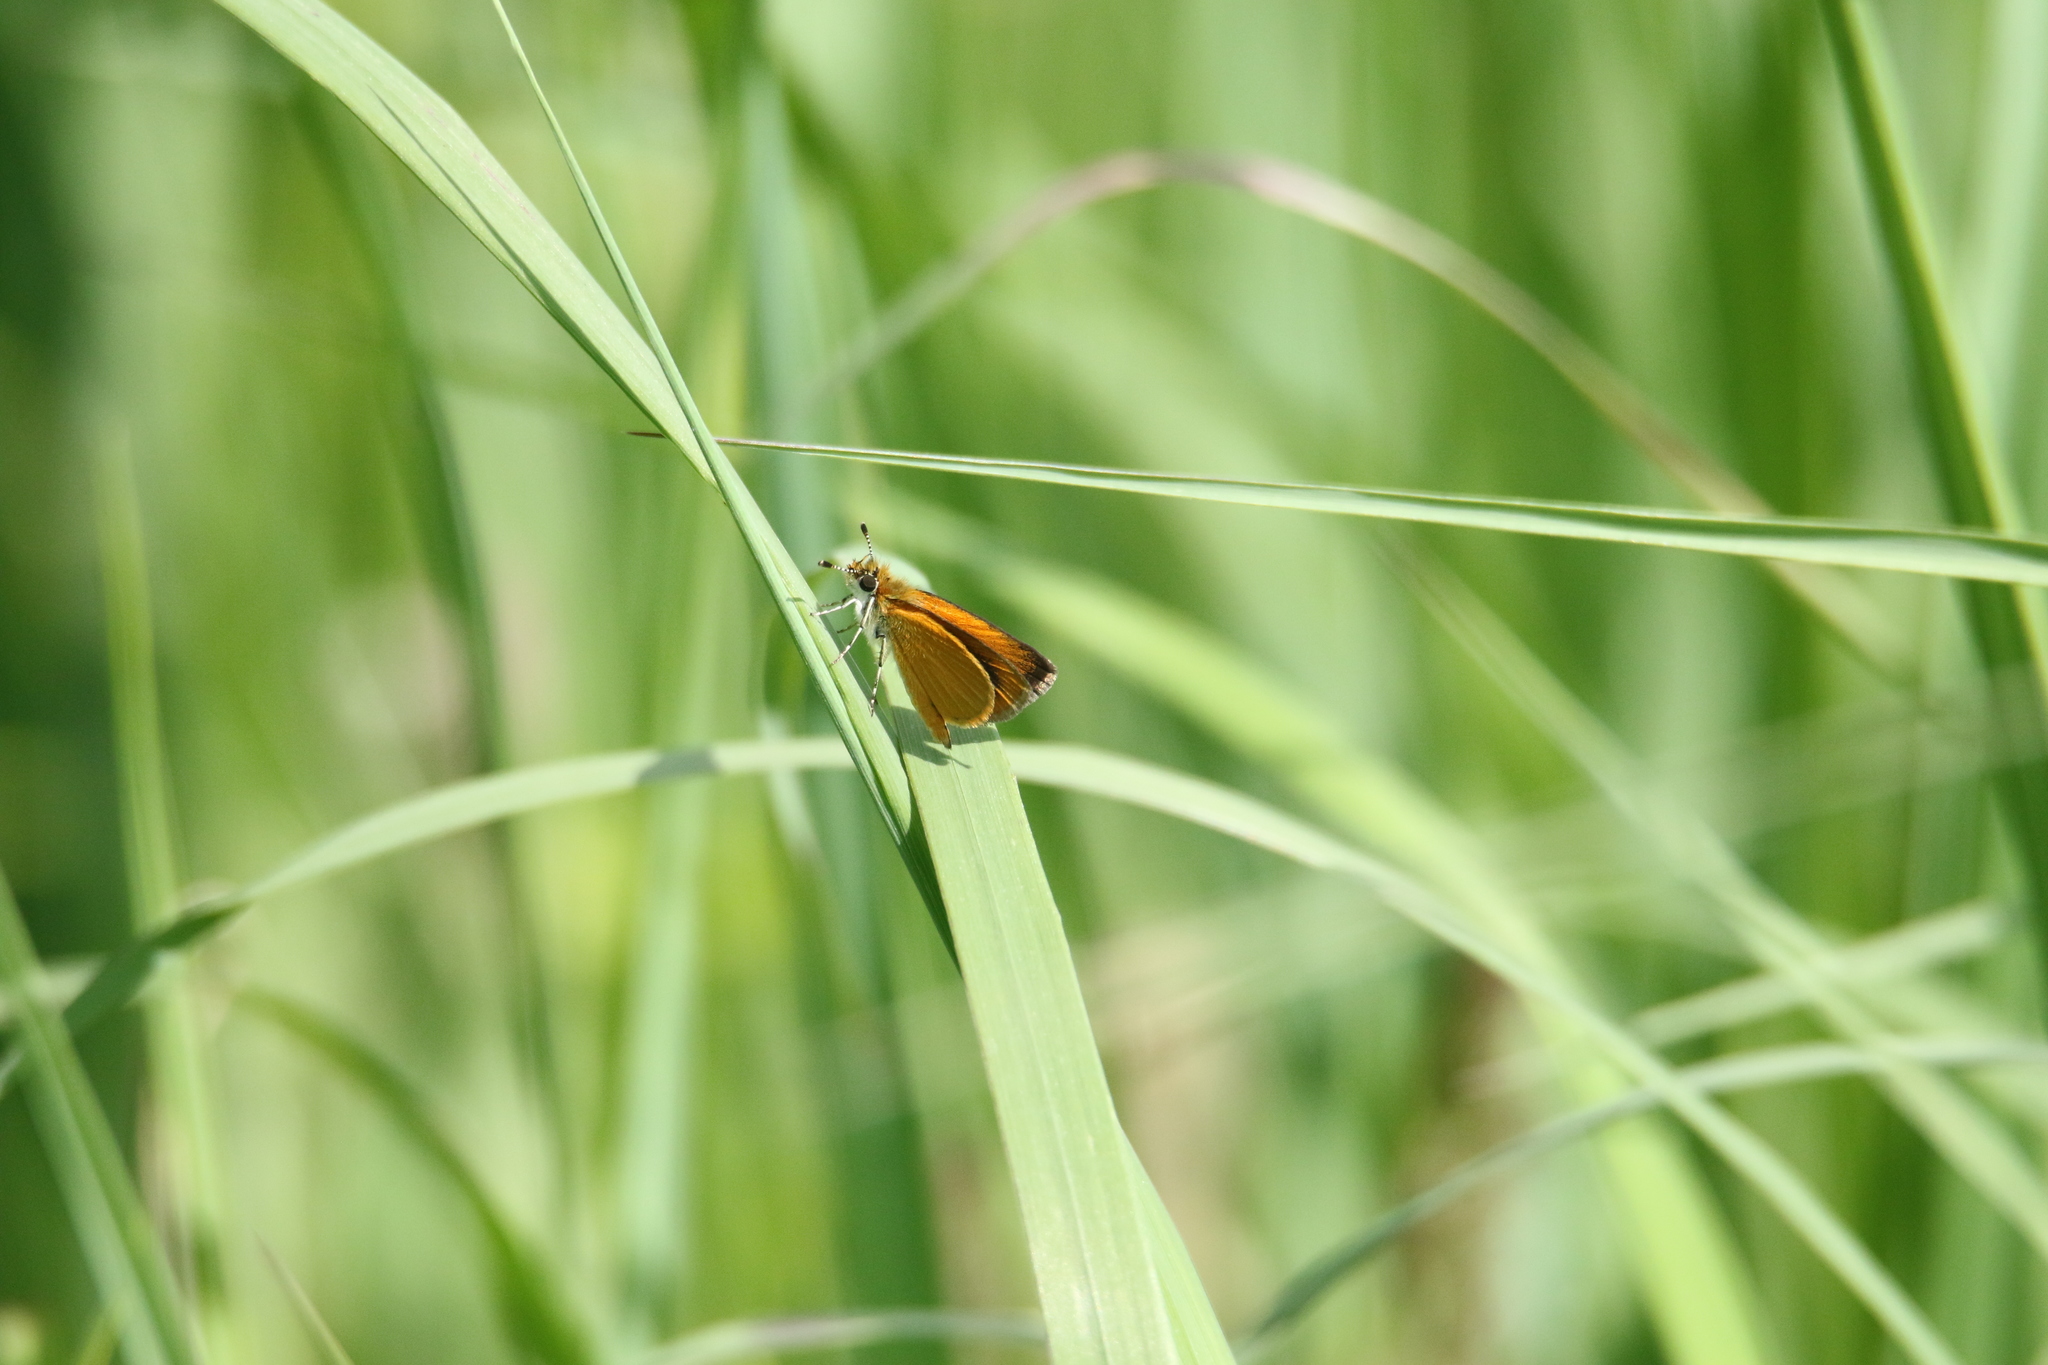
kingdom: Animalia
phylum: Arthropoda
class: Insecta
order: Lepidoptera
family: Hesperiidae
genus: Ancyloxypha
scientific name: Ancyloxypha numitor
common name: Least skipper
